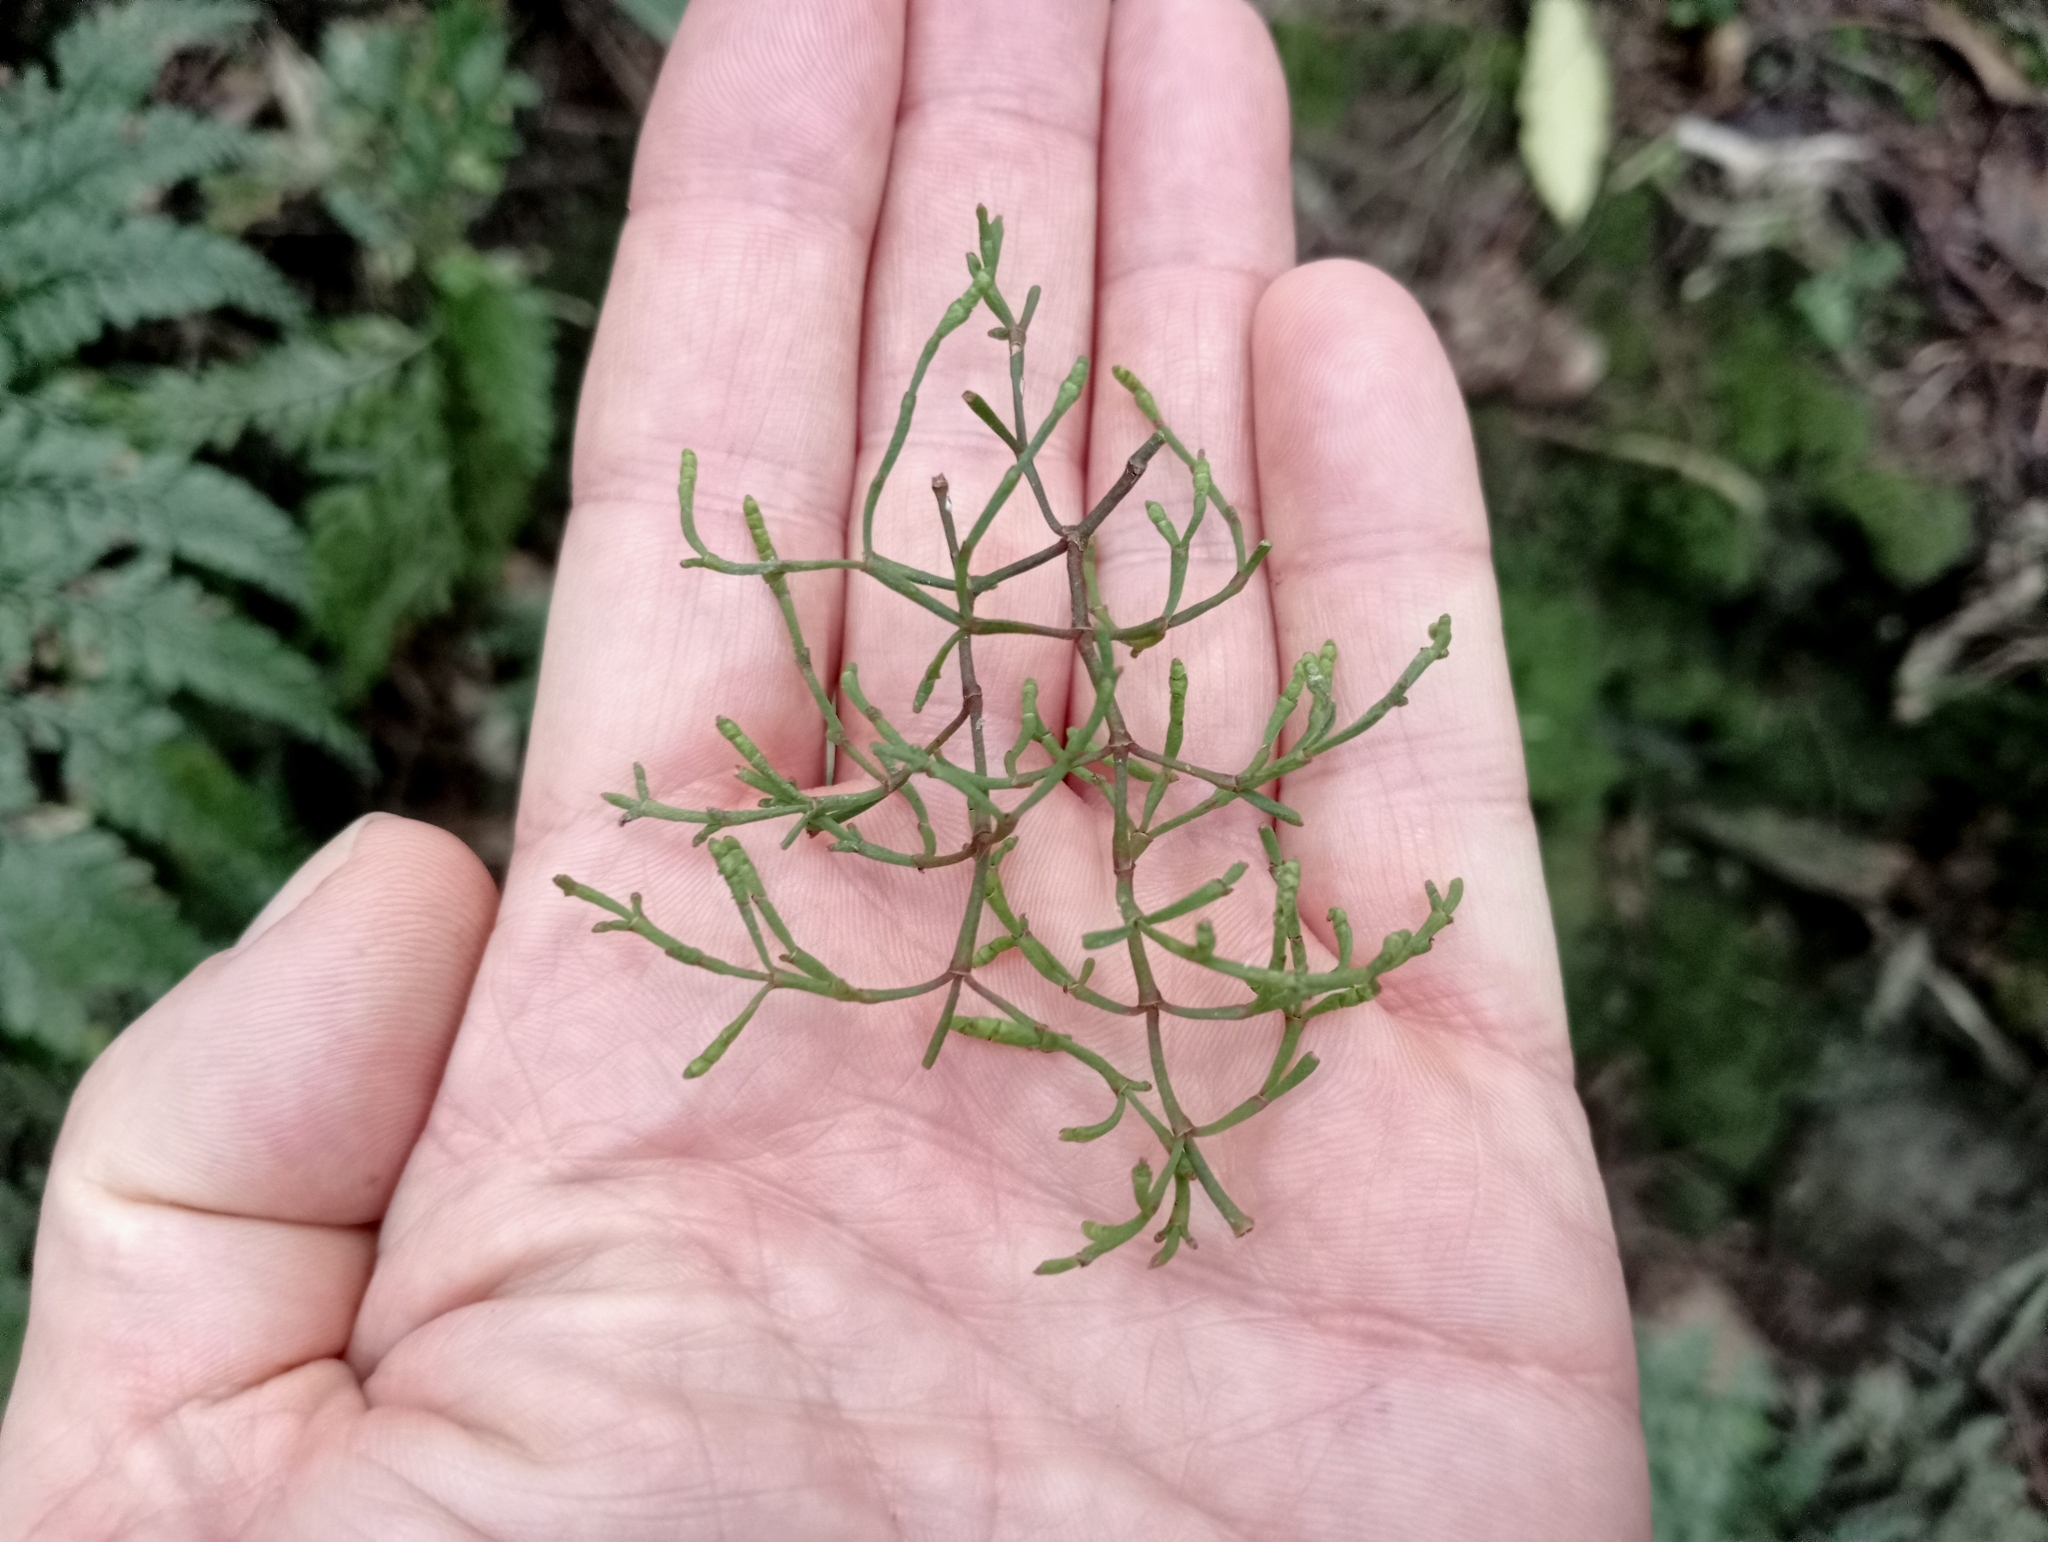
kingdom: Plantae
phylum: Tracheophyta
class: Magnoliopsida
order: Santalales
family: Viscaceae
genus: Korthalsella
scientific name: Korthalsella salicornioides
